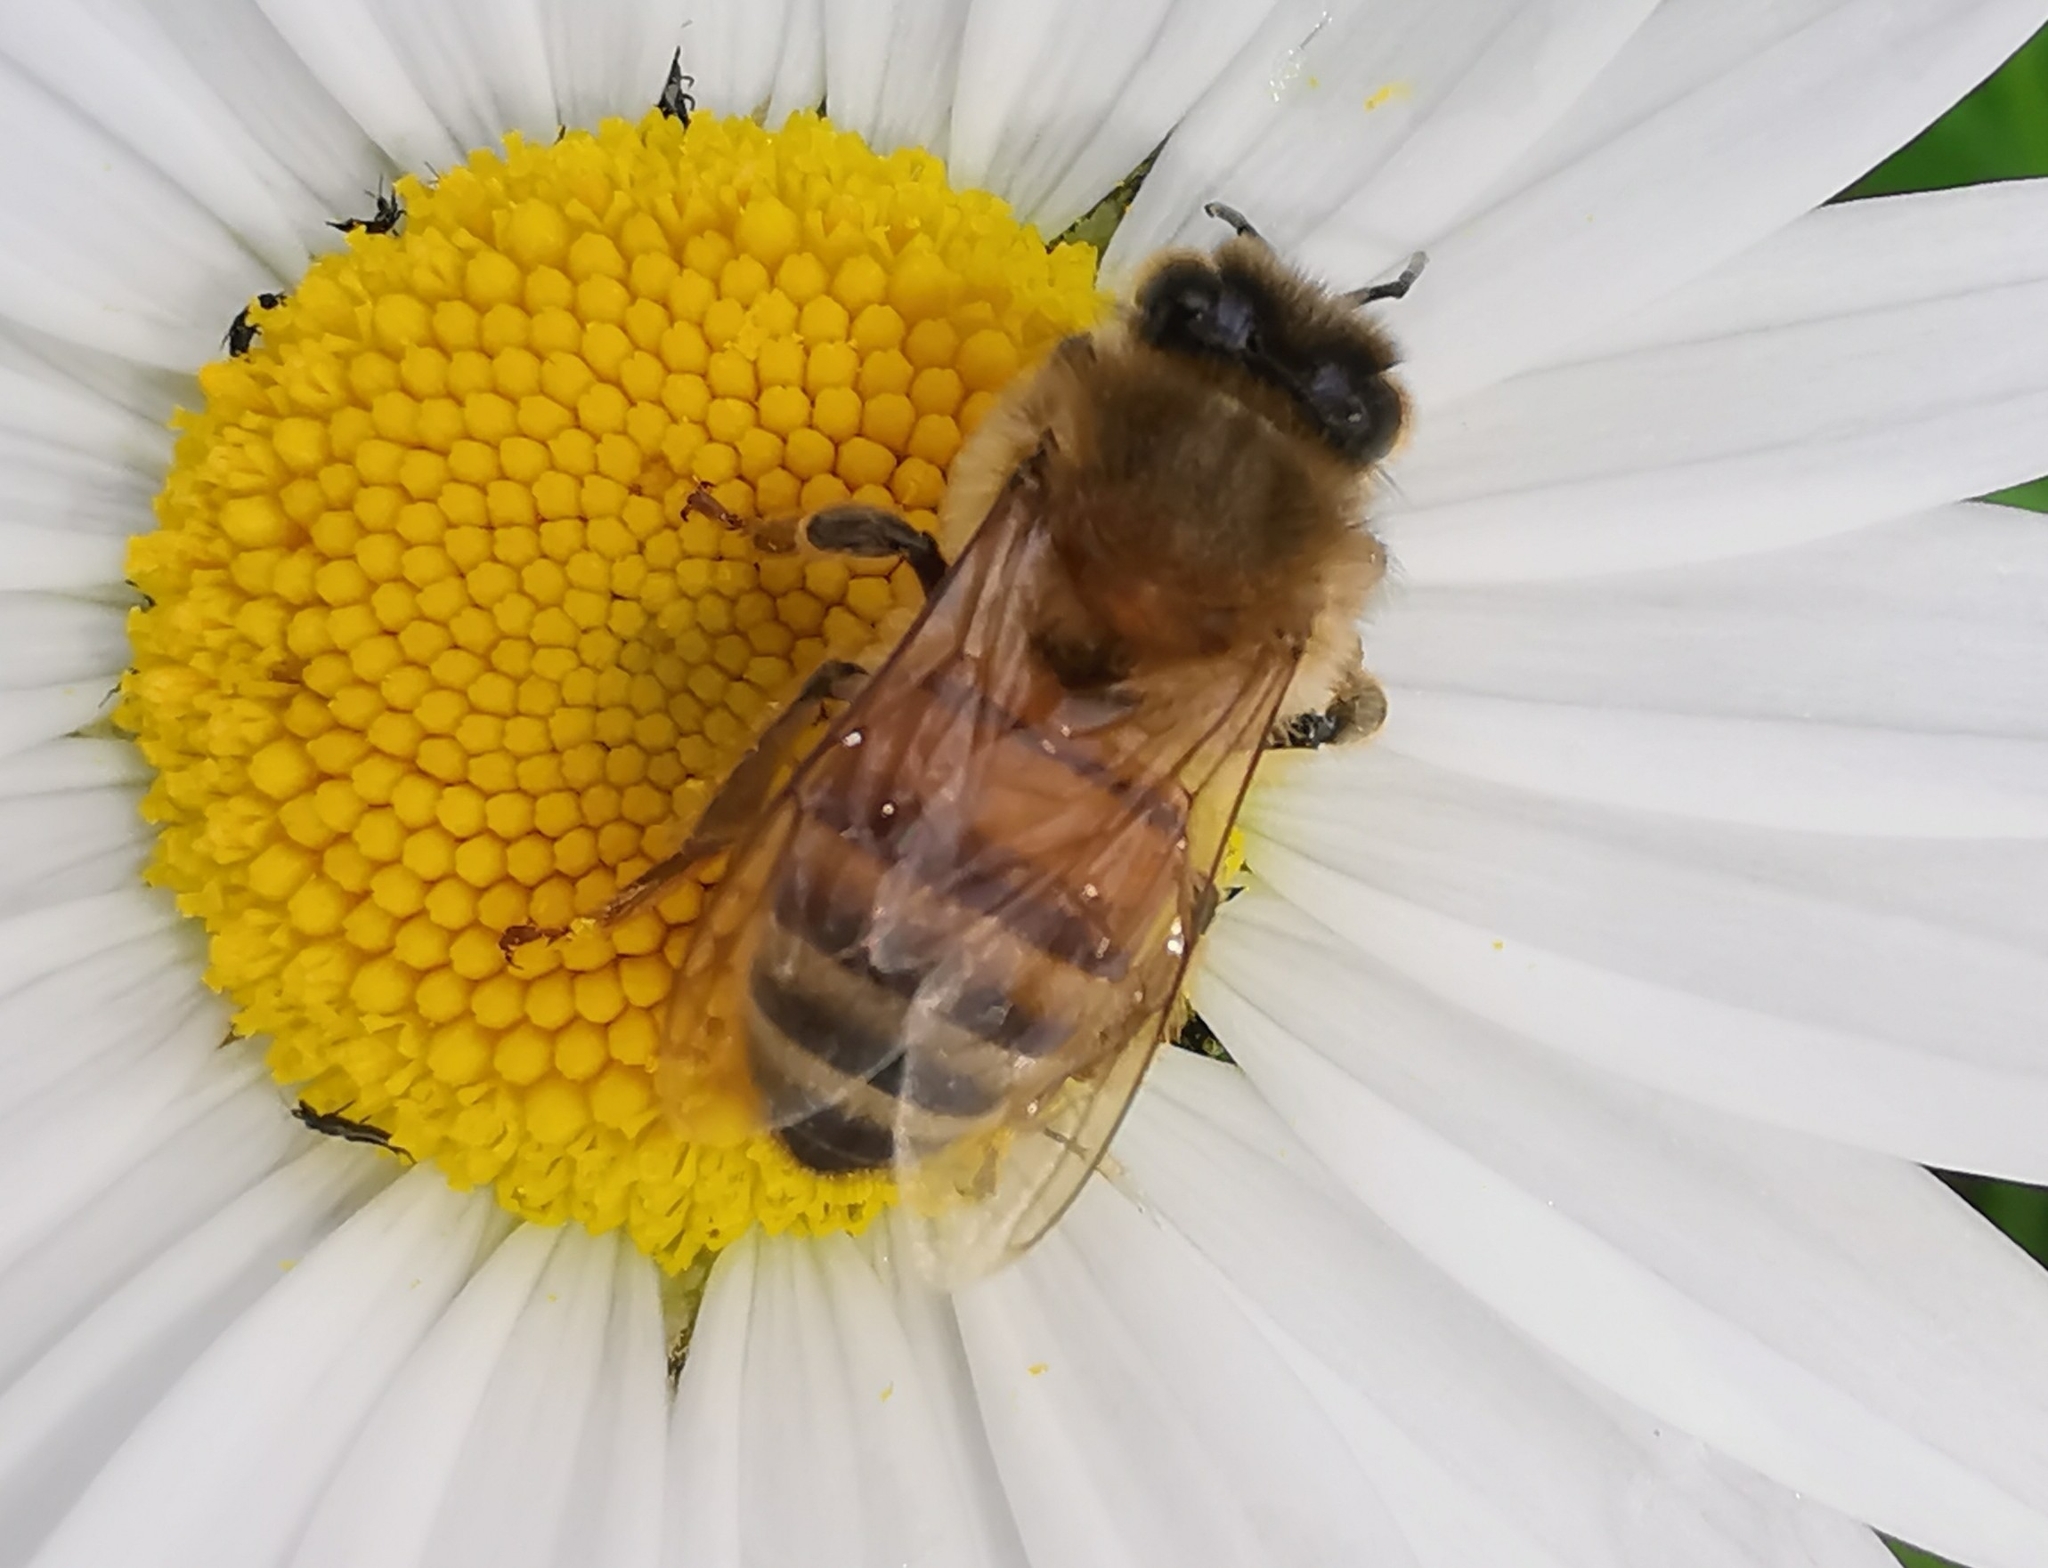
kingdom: Animalia
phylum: Arthropoda
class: Insecta
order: Hymenoptera
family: Apidae
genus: Apis
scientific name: Apis mellifera
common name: Honey bee
